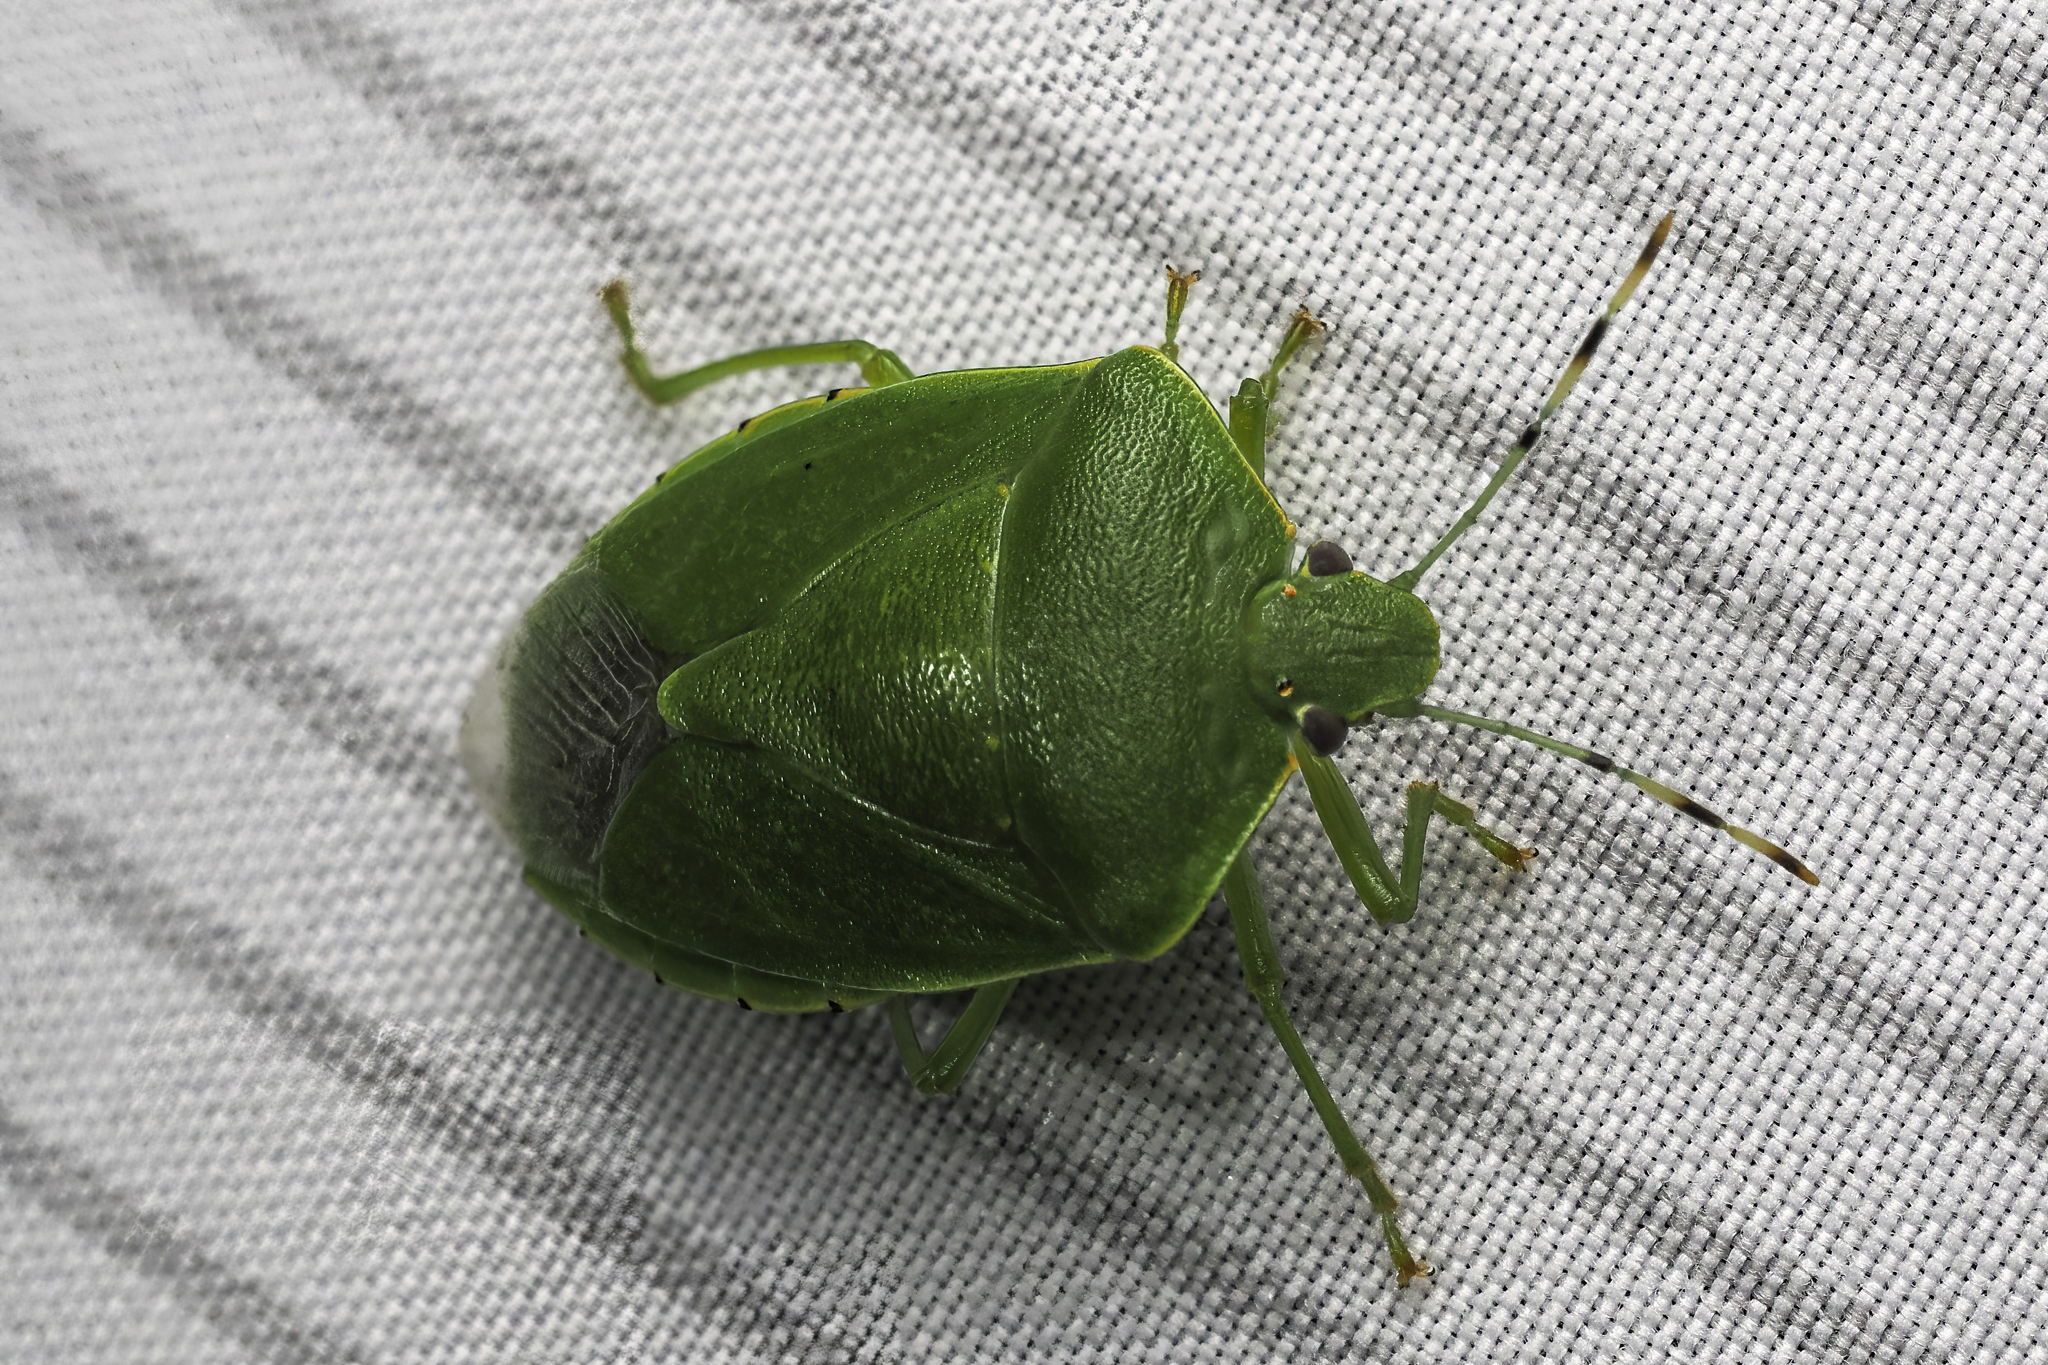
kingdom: Animalia
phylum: Arthropoda
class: Insecta
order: Hemiptera
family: Pentatomidae
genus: Chinavia
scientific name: Chinavia hilaris
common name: Green stink bug
